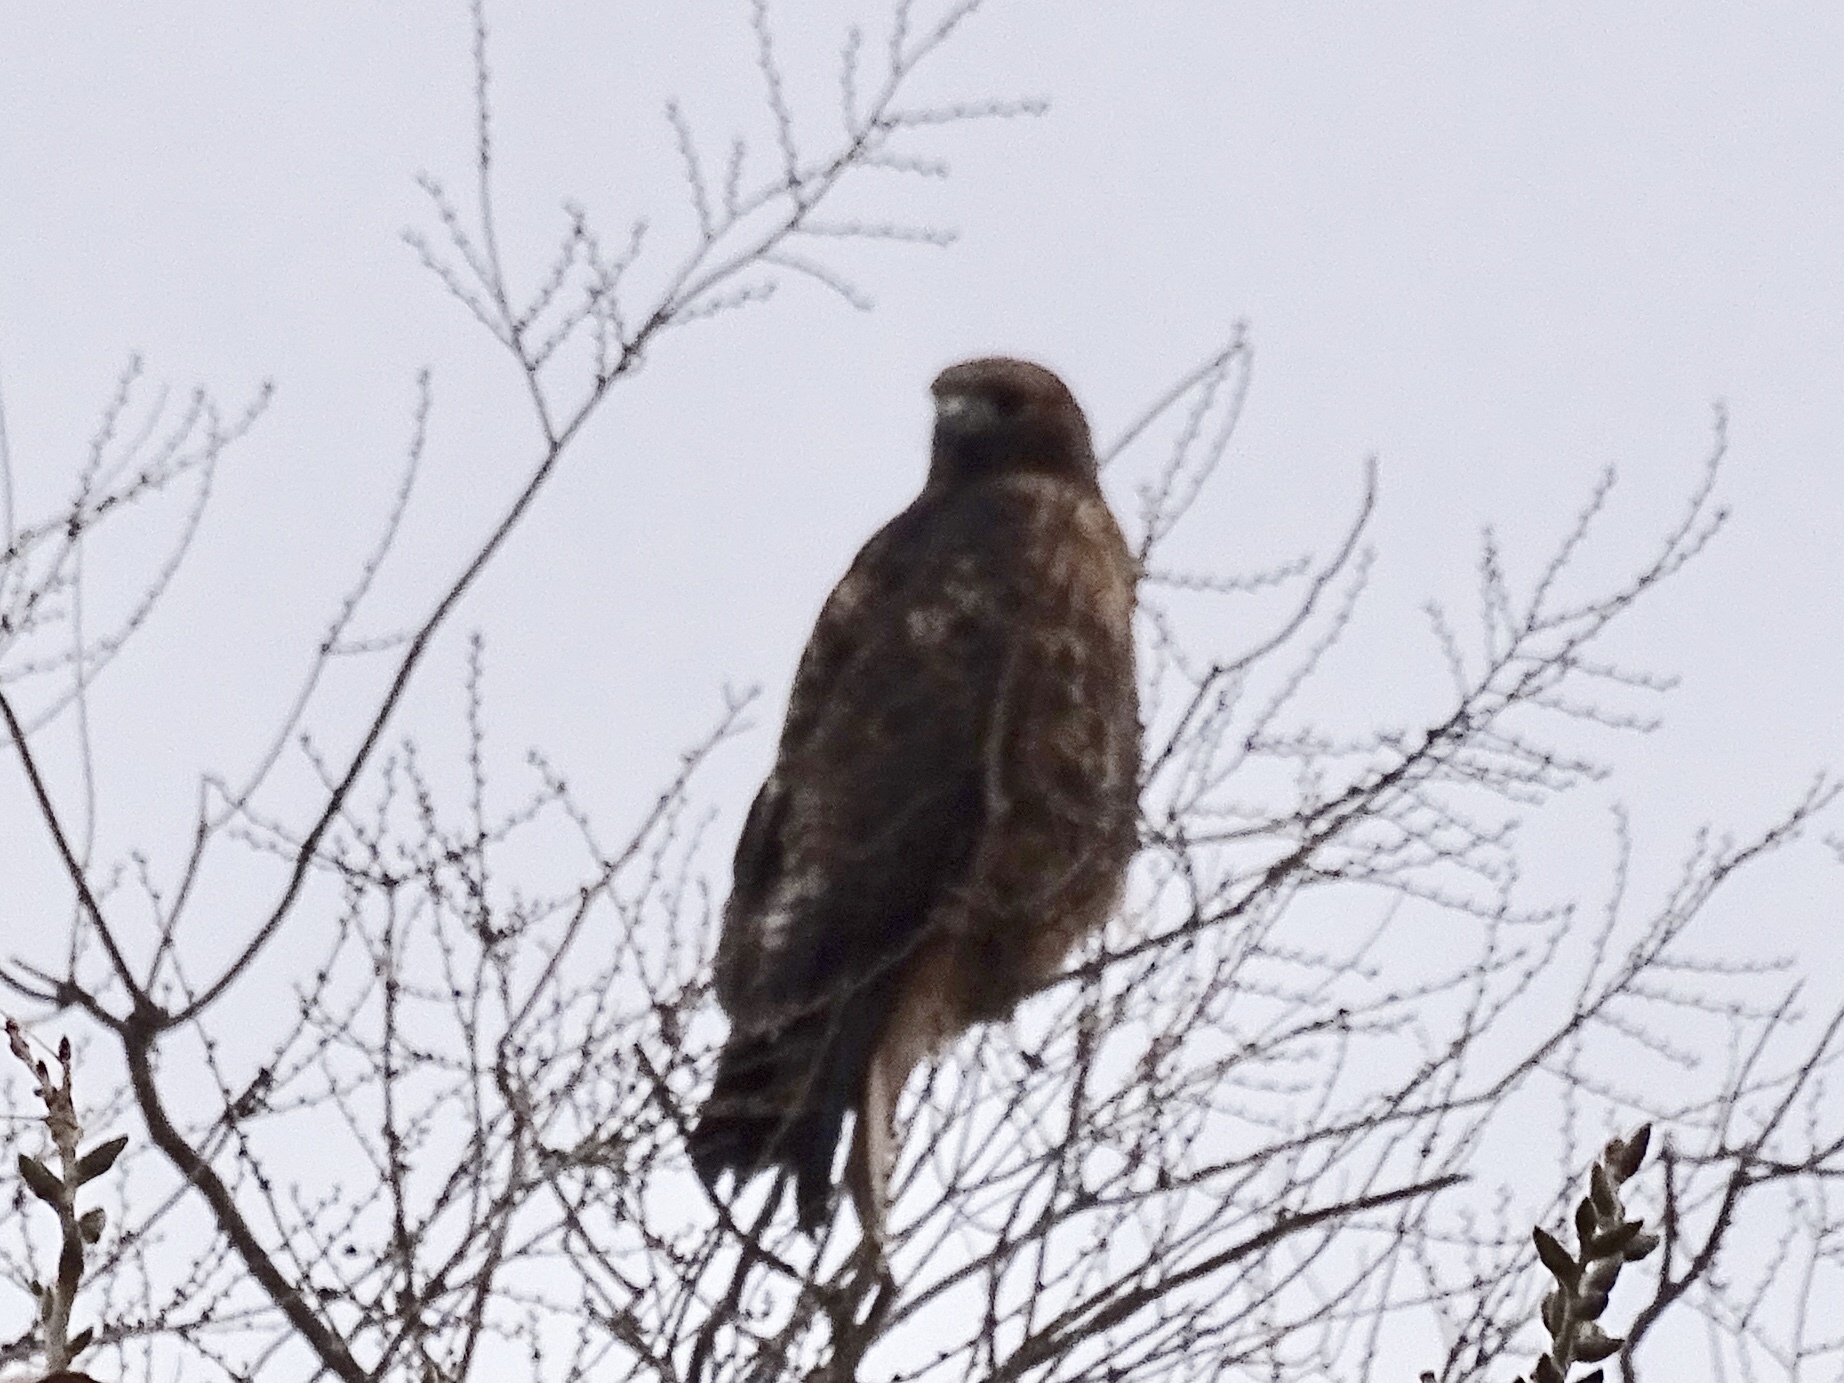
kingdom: Animalia
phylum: Chordata
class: Aves
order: Accipitriformes
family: Accipitridae
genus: Buteo
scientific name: Buteo jamaicensis
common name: Red-tailed hawk
